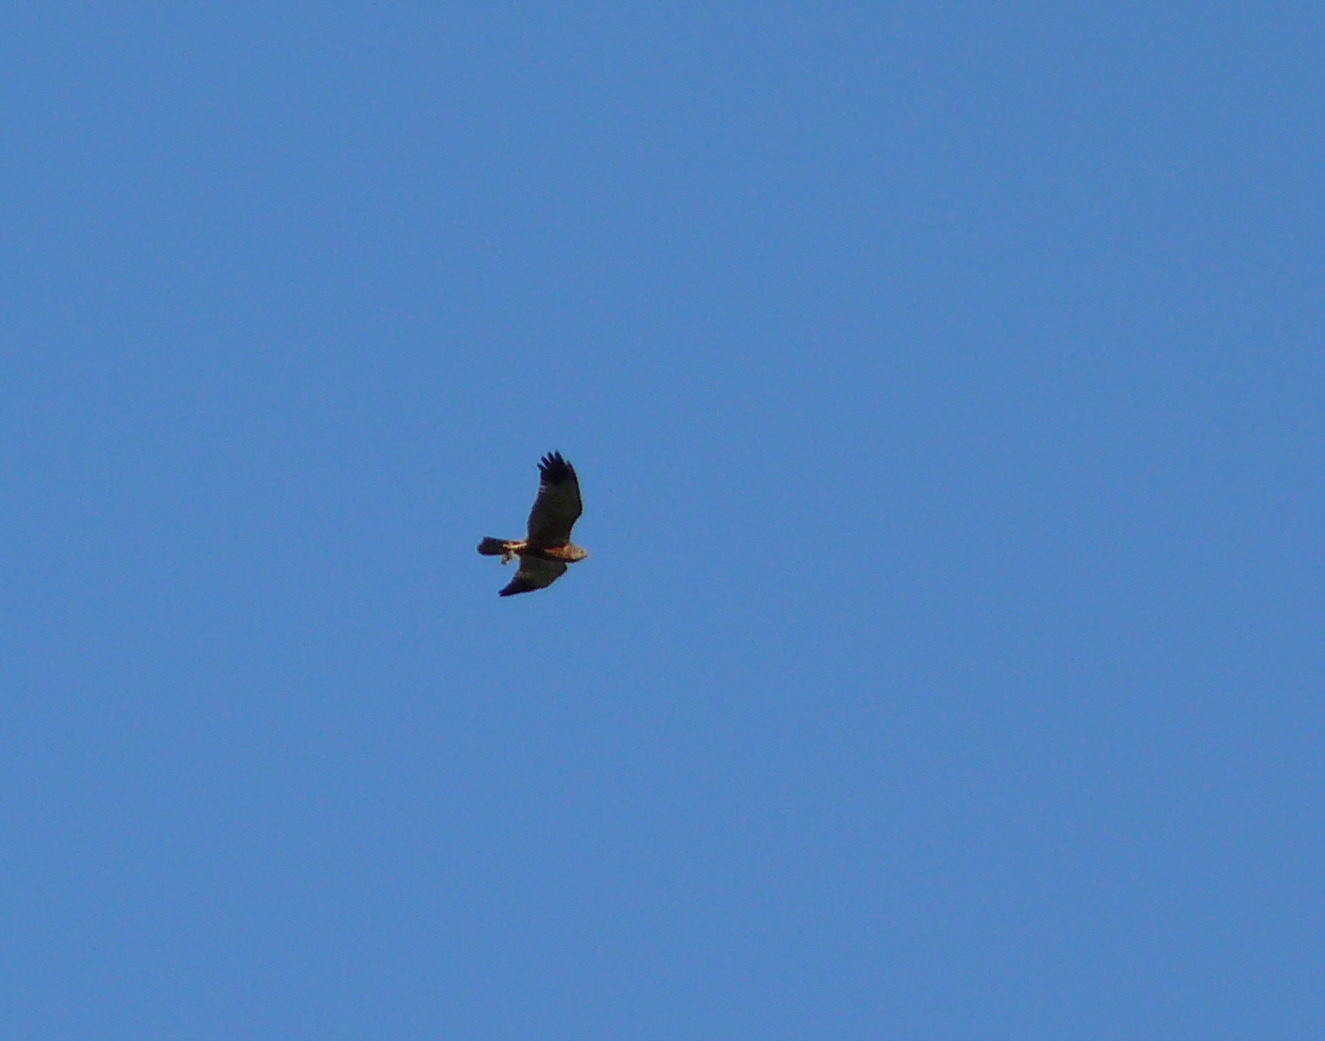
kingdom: Animalia
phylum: Chordata
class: Aves
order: Accipitriformes
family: Accipitridae
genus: Circus
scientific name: Circus aeruginosus
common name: Western marsh harrier
